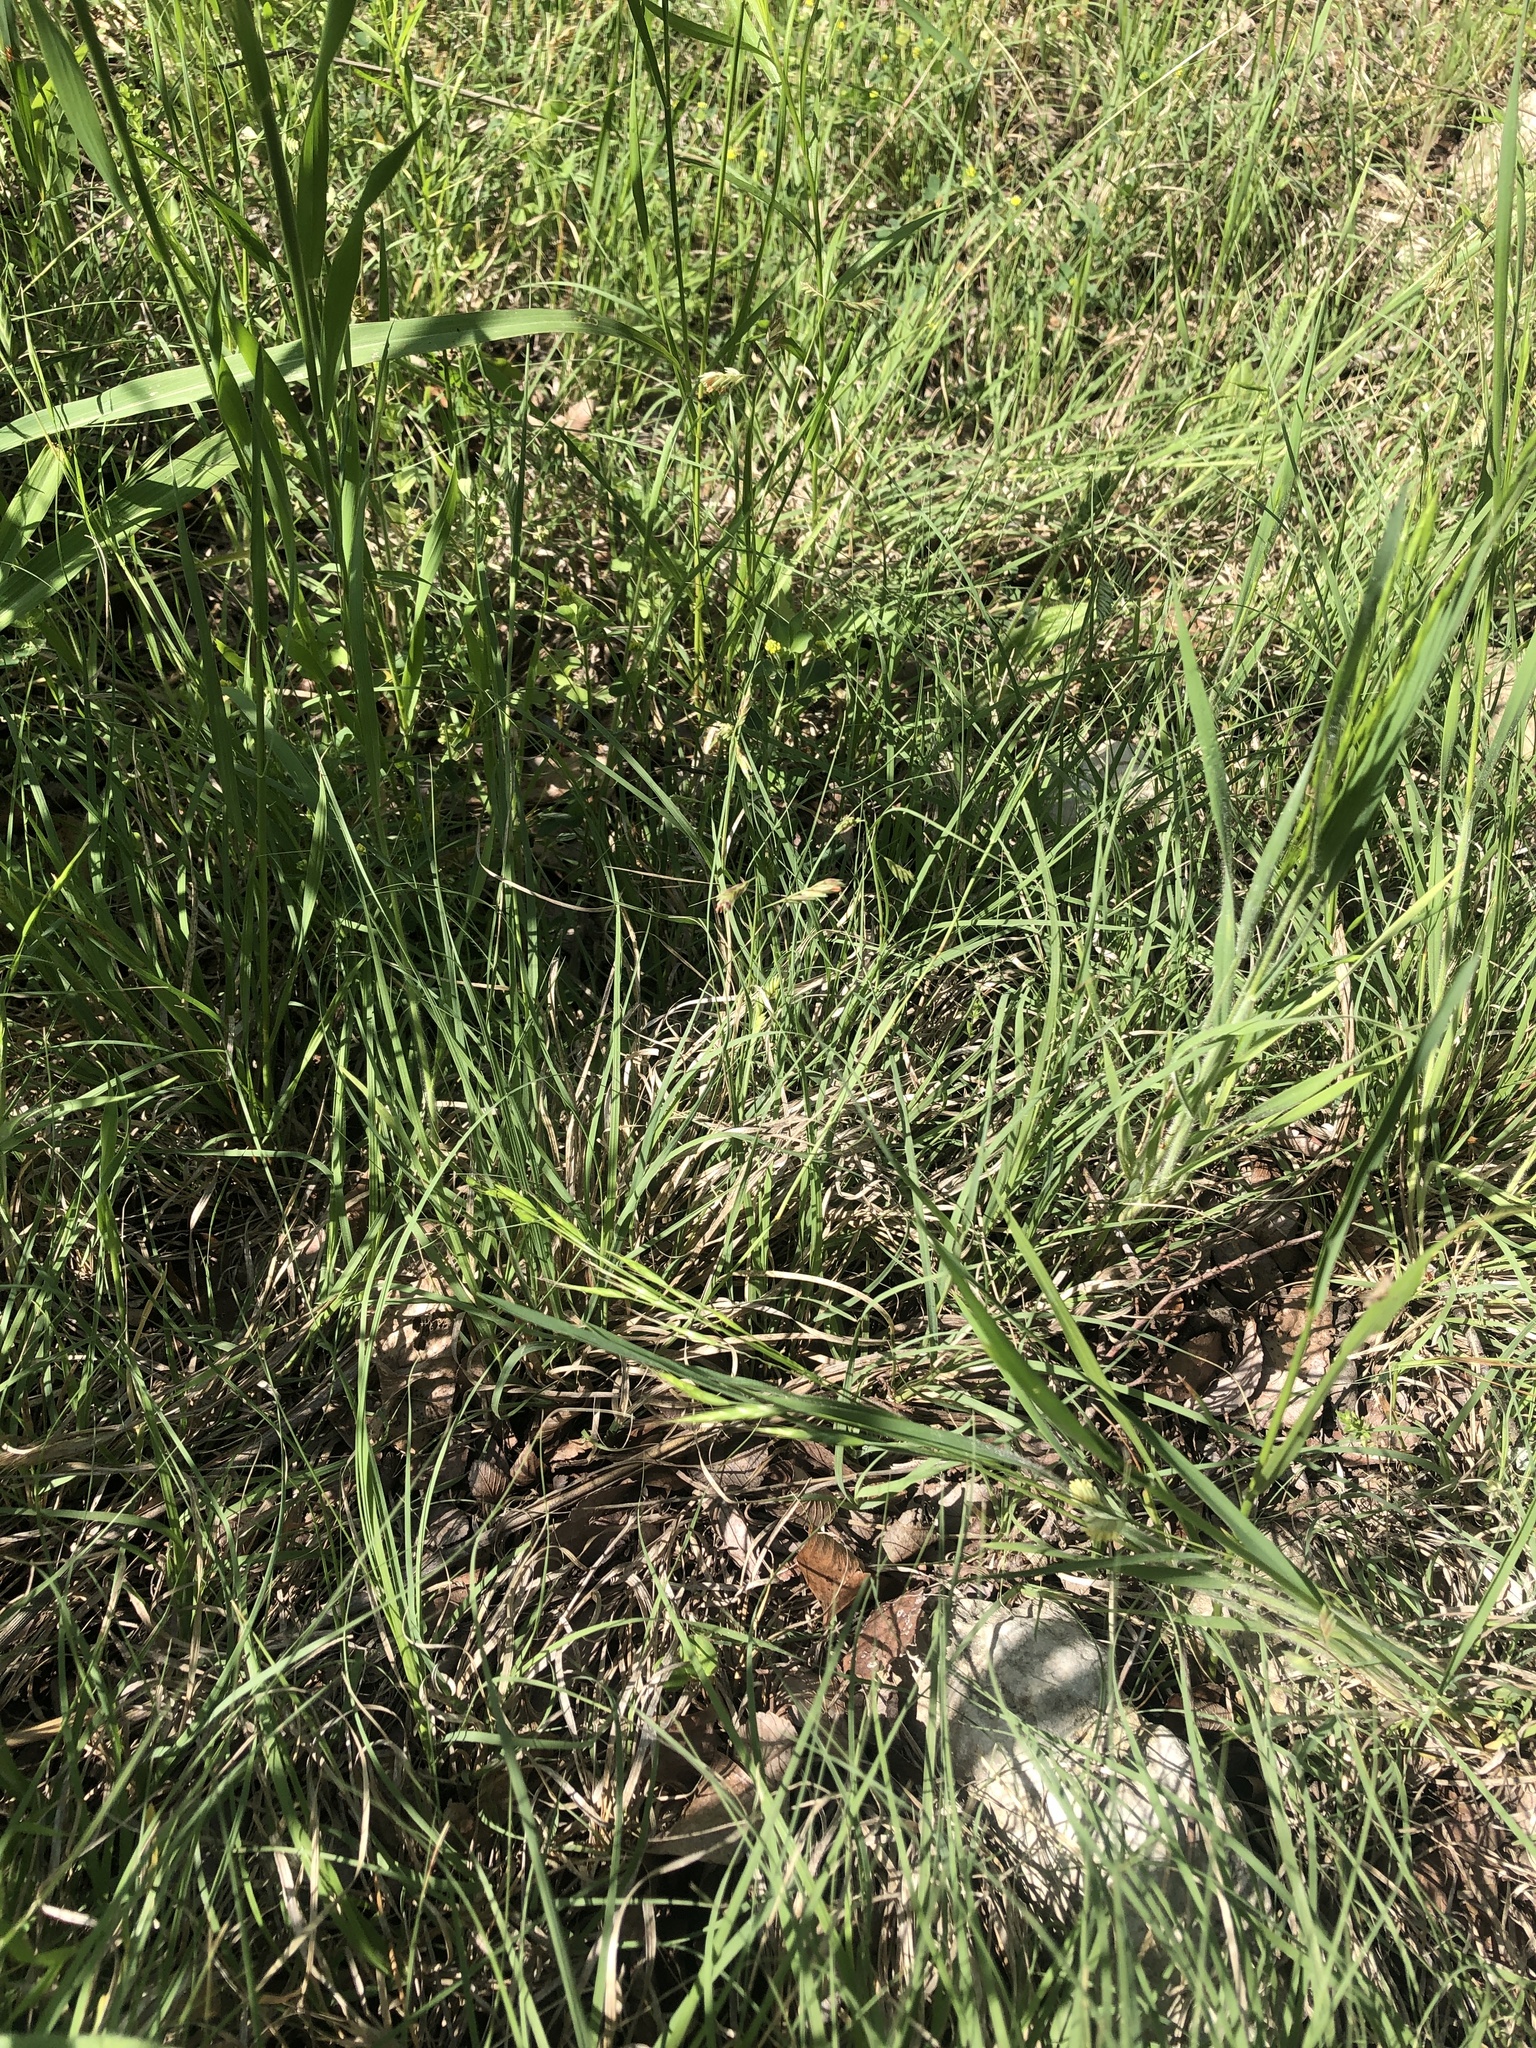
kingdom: Plantae
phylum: Tracheophyta
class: Liliopsida
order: Poales
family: Poaceae
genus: Bouteloua
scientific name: Bouteloua dactyloides
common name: Buffalo grass
